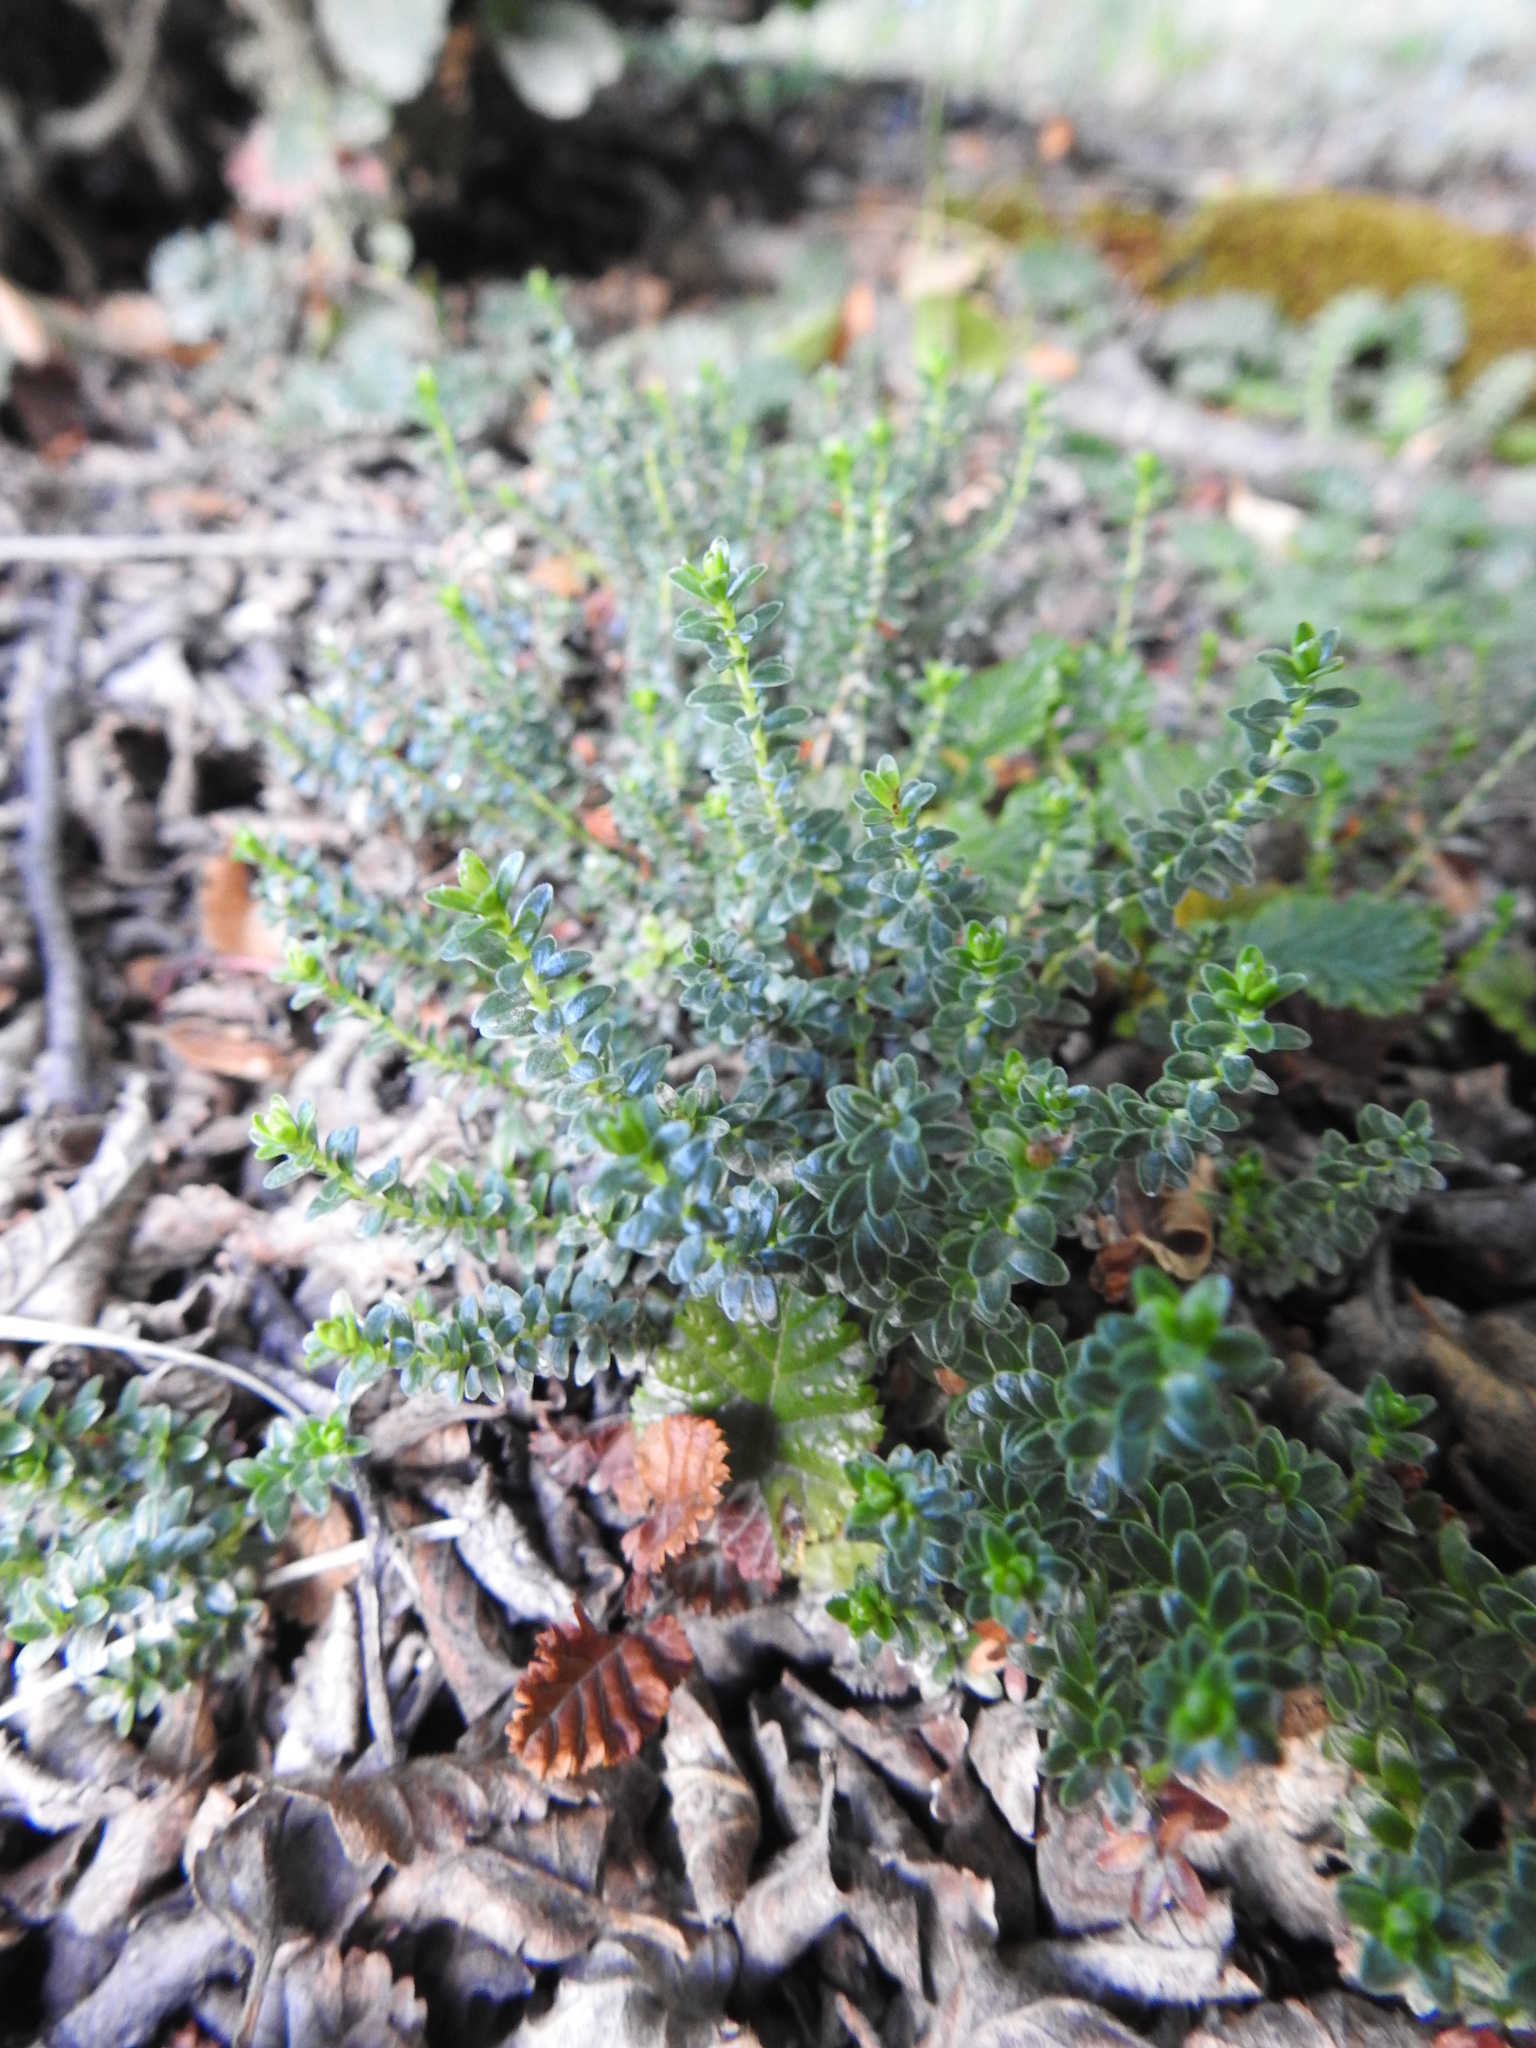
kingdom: Plantae
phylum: Tracheophyta
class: Magnoliopsida
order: Ericales
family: Ericaceae
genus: Gaultheria
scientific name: Gaultheria pumila
